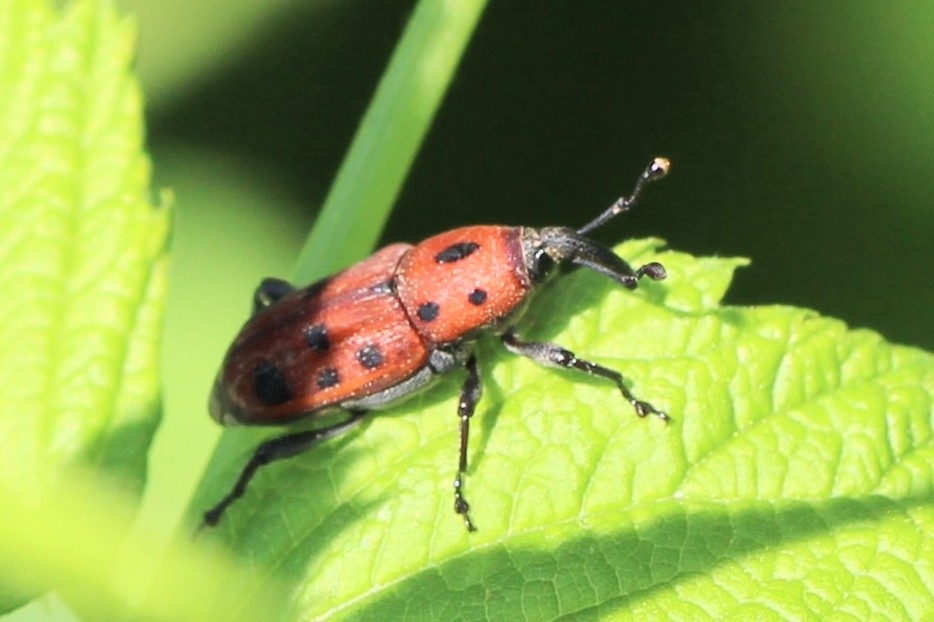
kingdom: Animalia
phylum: Arthropoda
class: Insecta
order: Coleoptera
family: Dryophthoridae
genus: Rhodobaenus
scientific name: Rhodobaenus tredecimpunctatus
